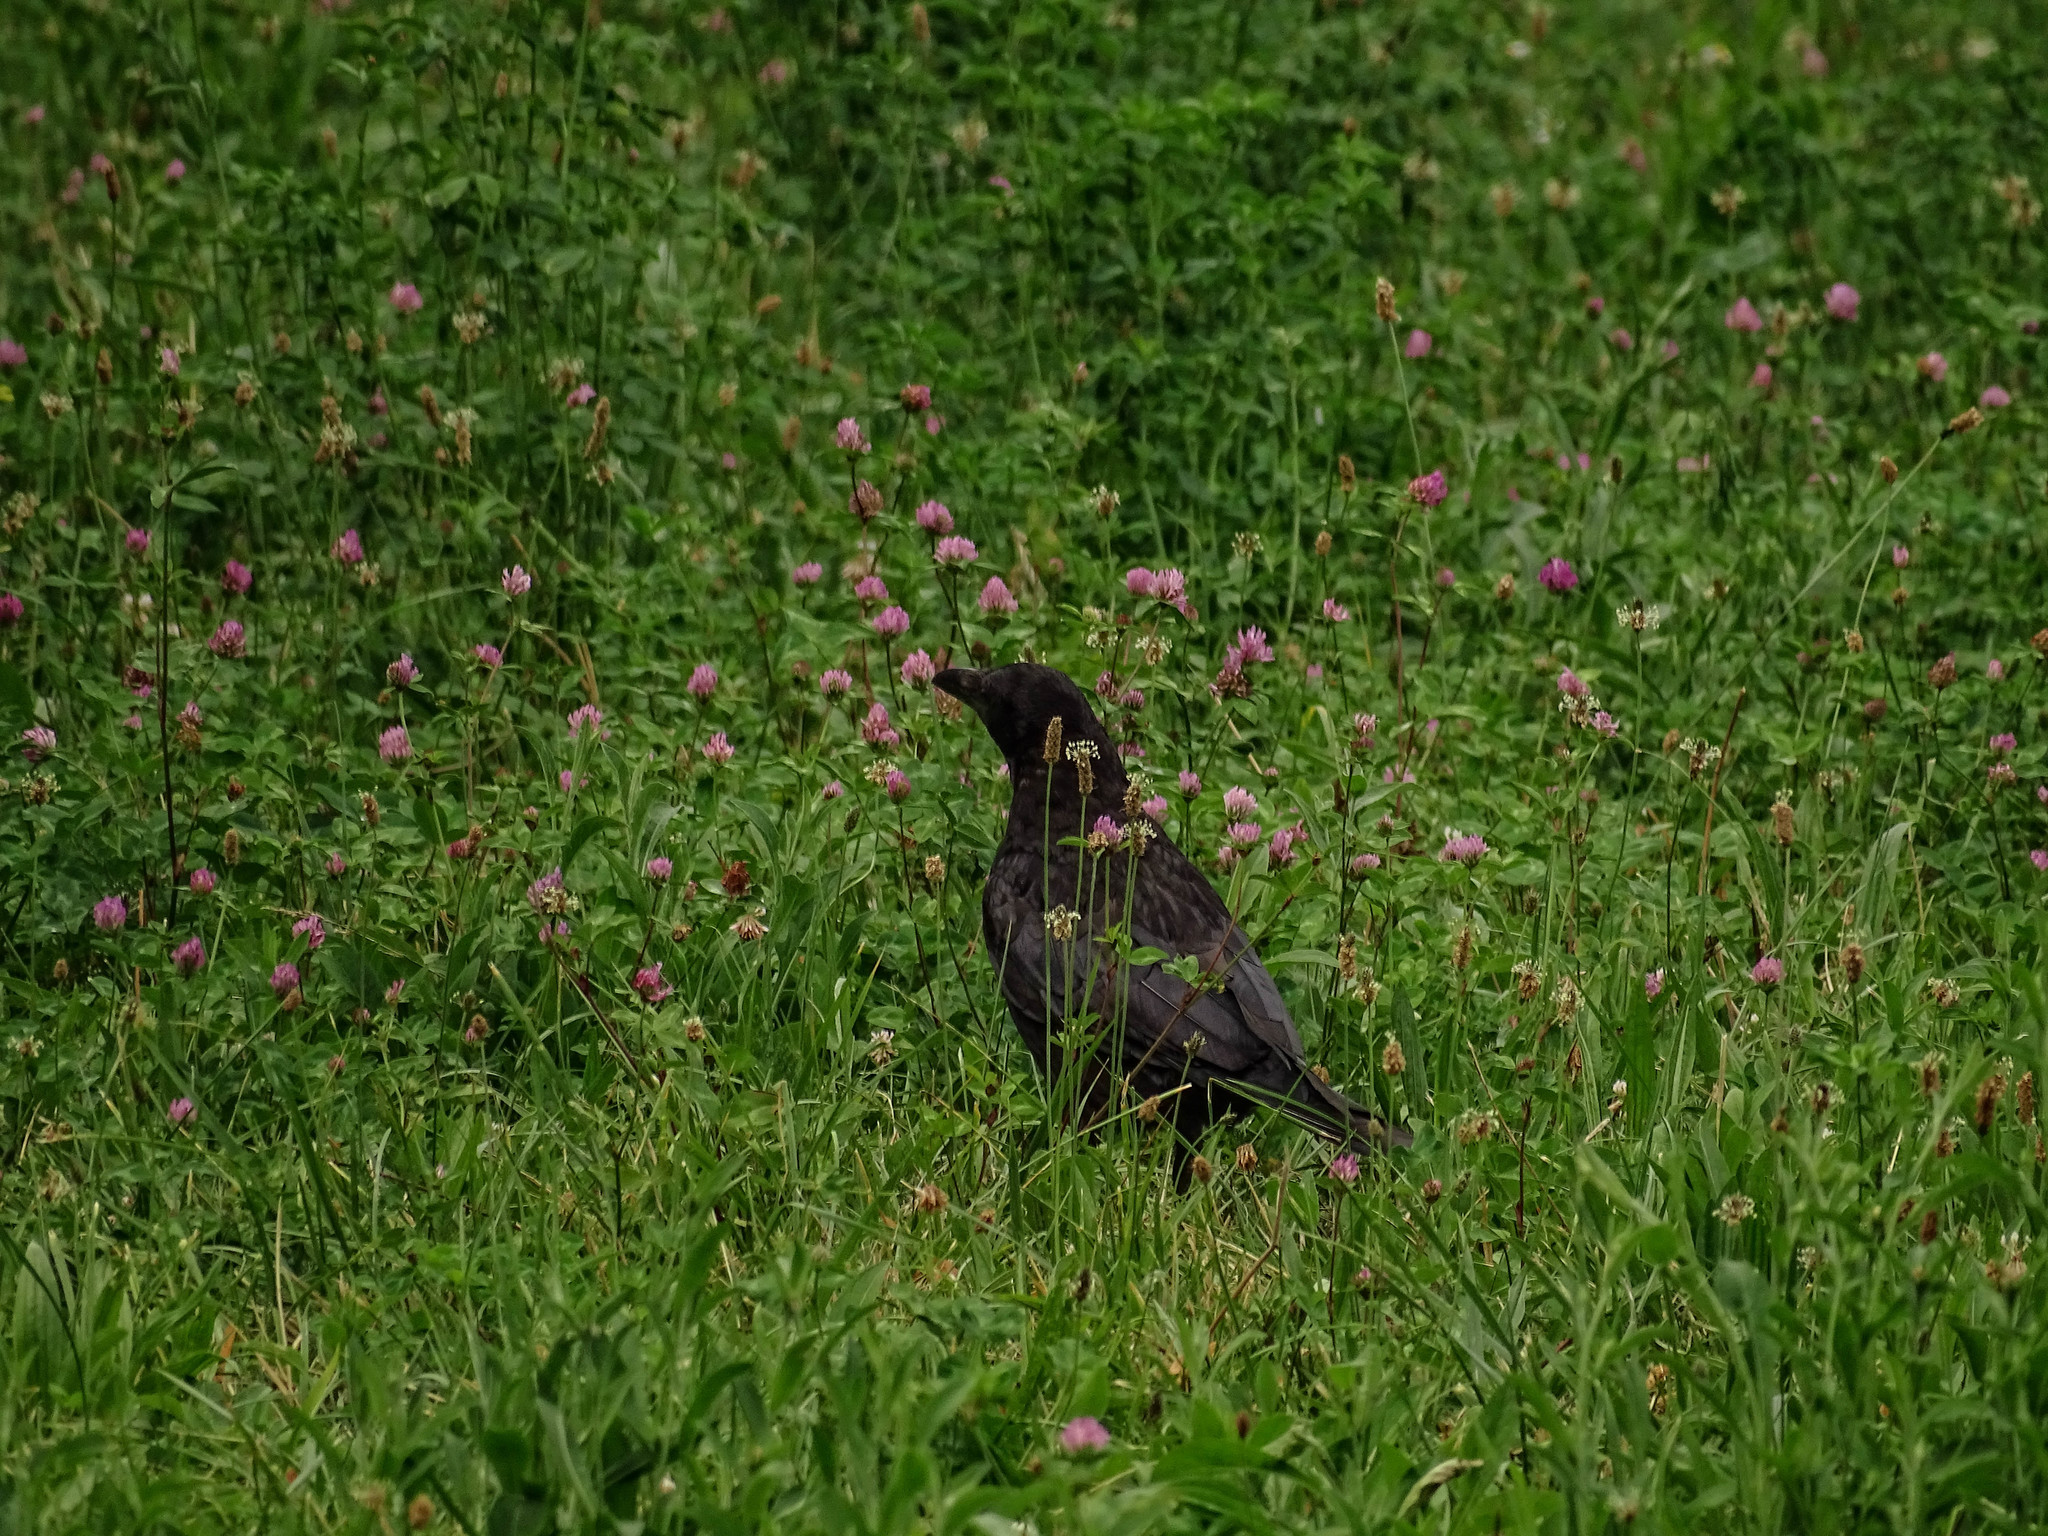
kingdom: Animalia
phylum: Chordata
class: Aves
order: Passeriformes
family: Corvidae
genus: Corvus
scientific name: Corvus corone
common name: Carrion crow
